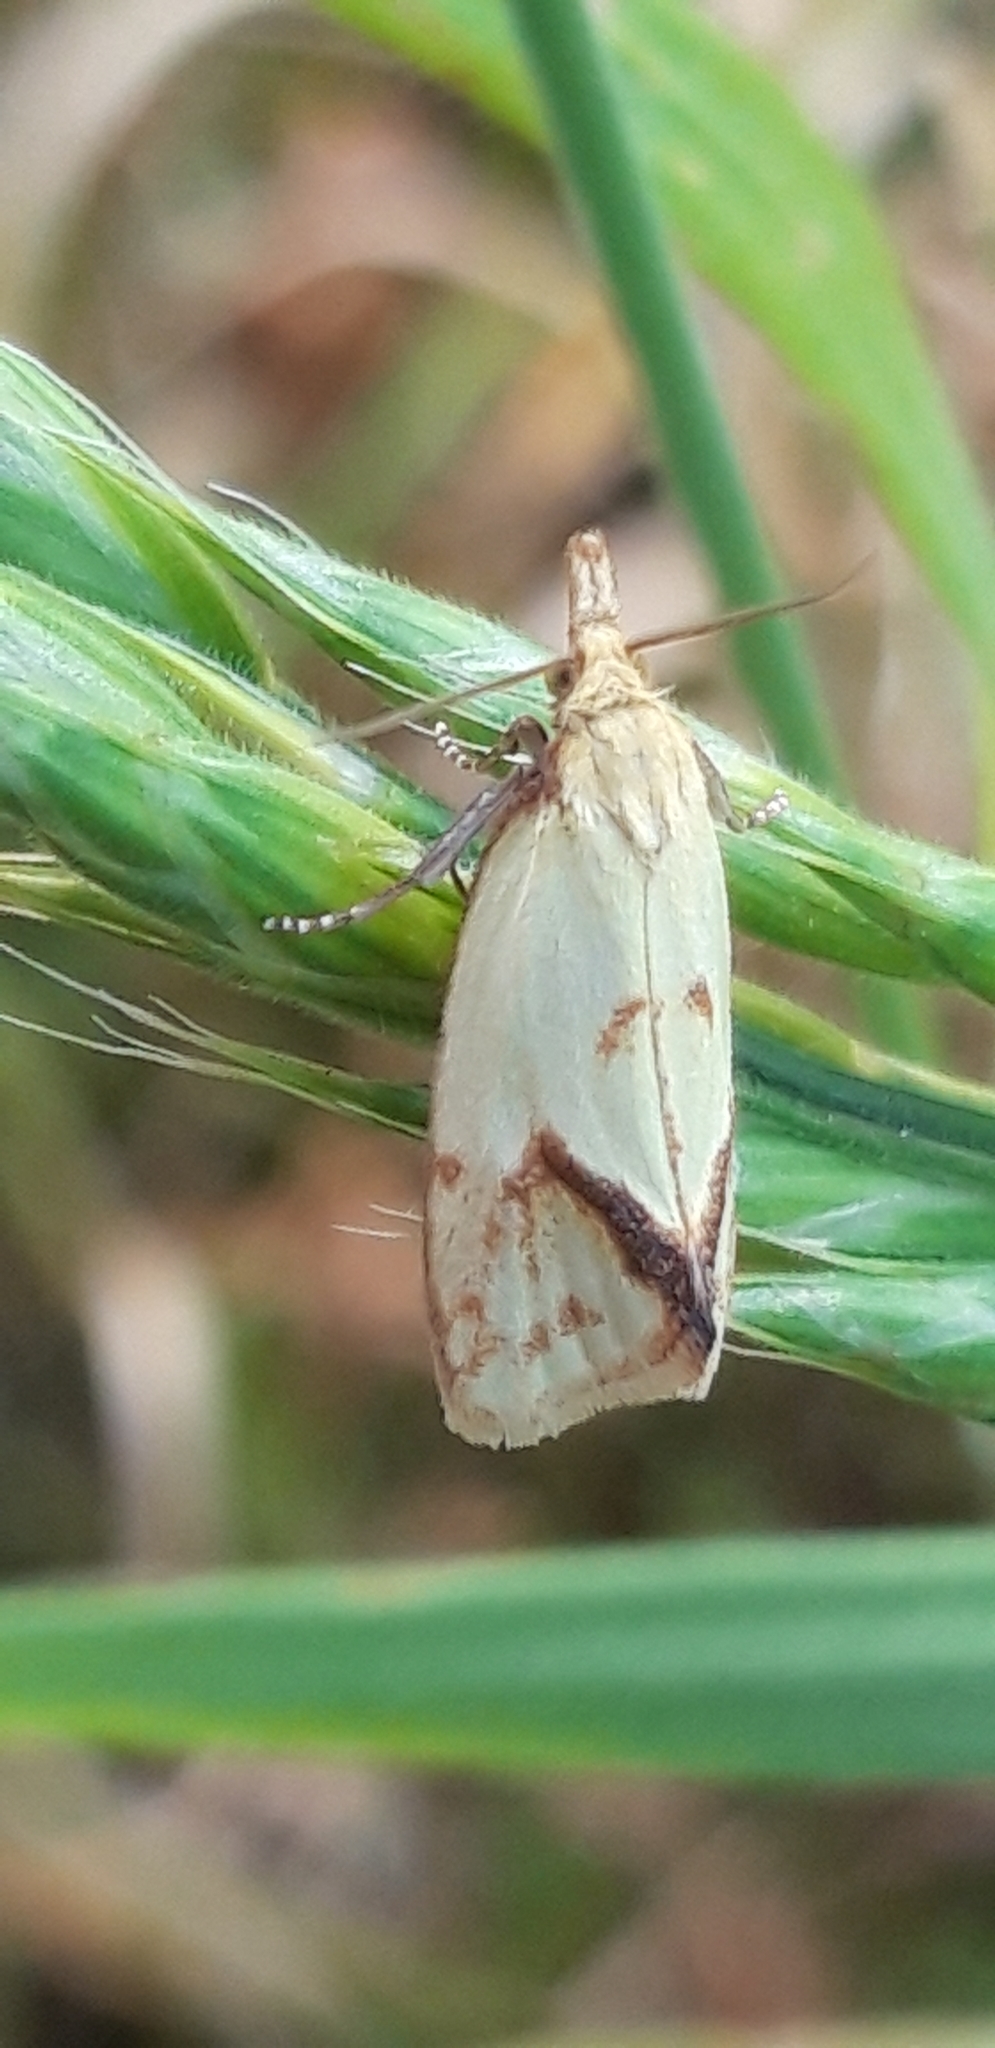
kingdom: Animalia
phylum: Arthropoda
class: Insecta
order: Lepidoptera
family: Tortricidae
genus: Agapeta
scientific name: Agapeta hamana
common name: Common yellow conch
